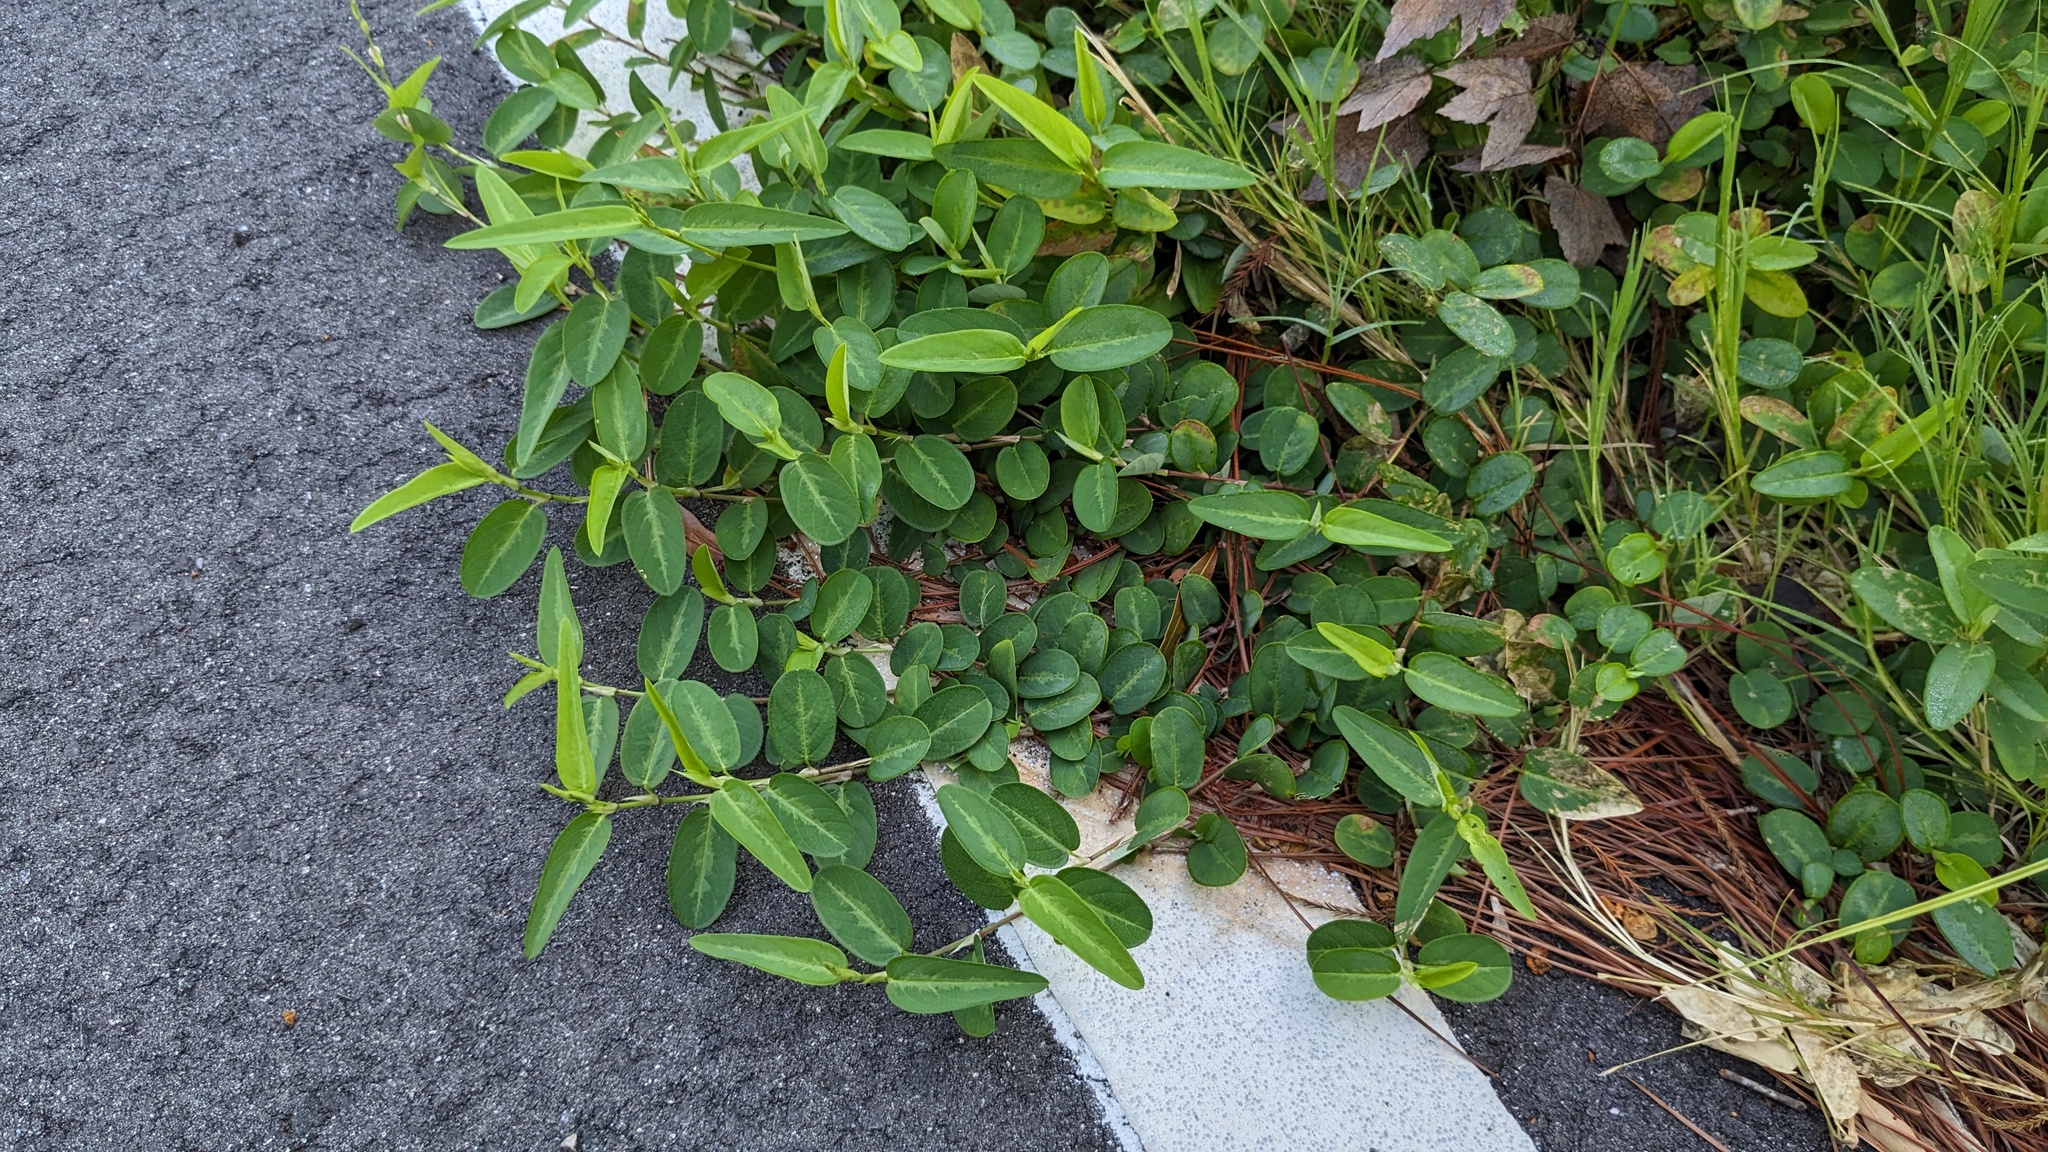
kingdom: Plantae
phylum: Tracheophyta
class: Magnoliopsida
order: Fabales
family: Fabaceae
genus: Alysicarpus
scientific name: Alysicarpus vaginalis
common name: White moneywort
